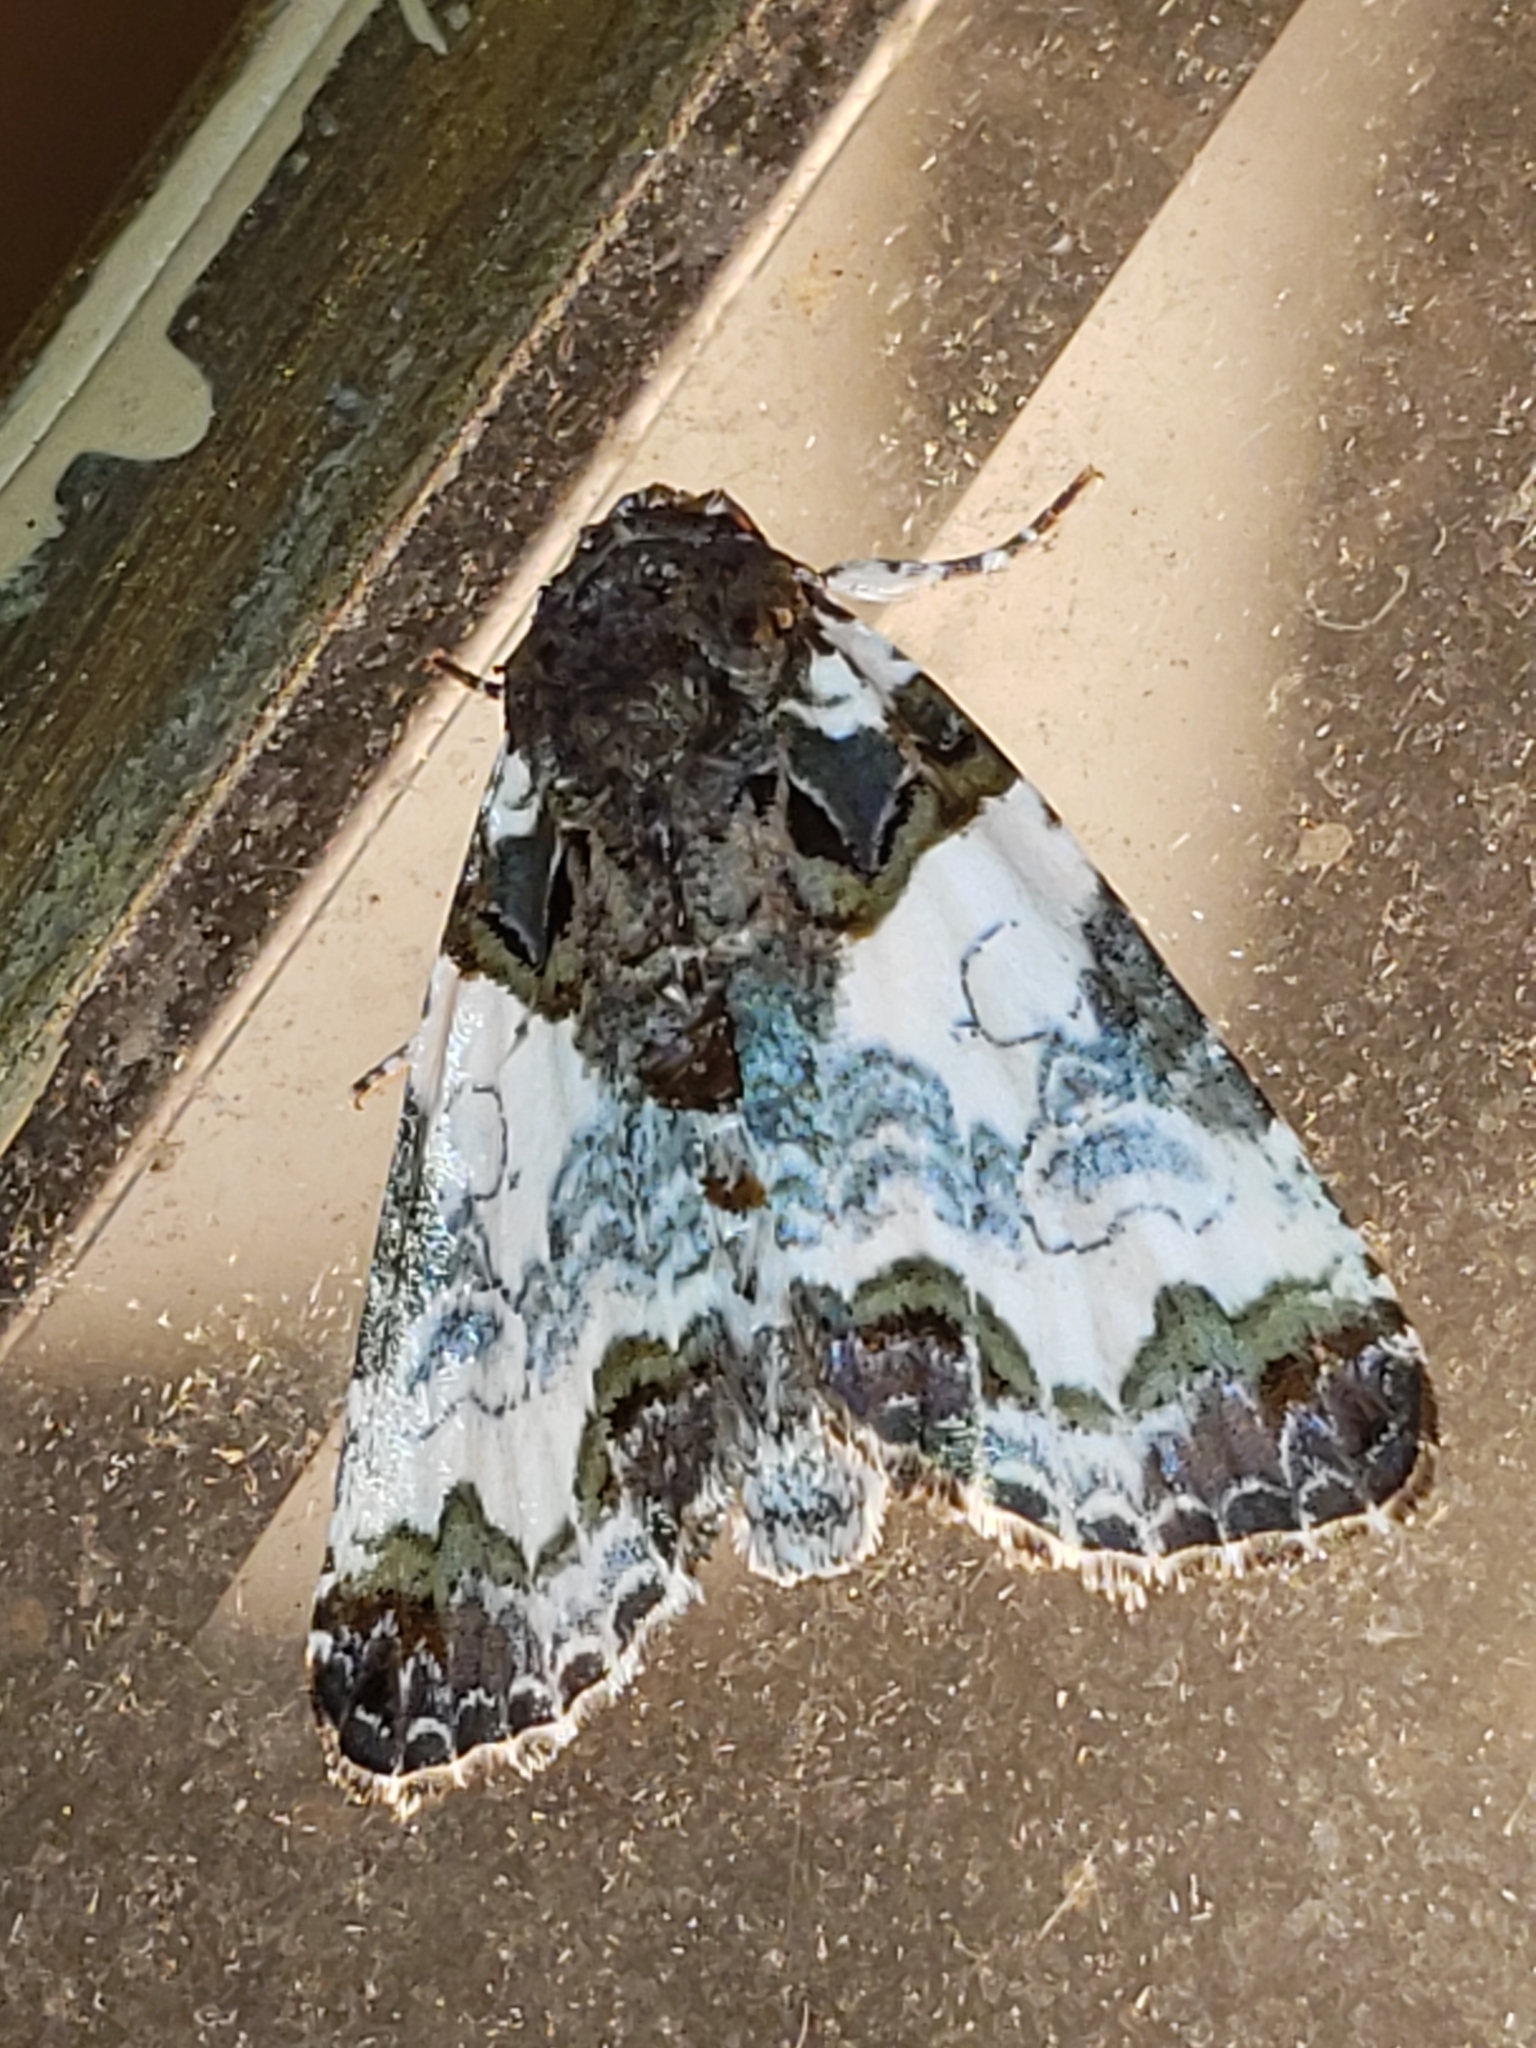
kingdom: Animalia
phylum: Arthropoda
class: Insecta
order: Lepidoptera
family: Noctuidae
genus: Cerma
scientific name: Cerma cerintha
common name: Tufted bird-dropping moth
